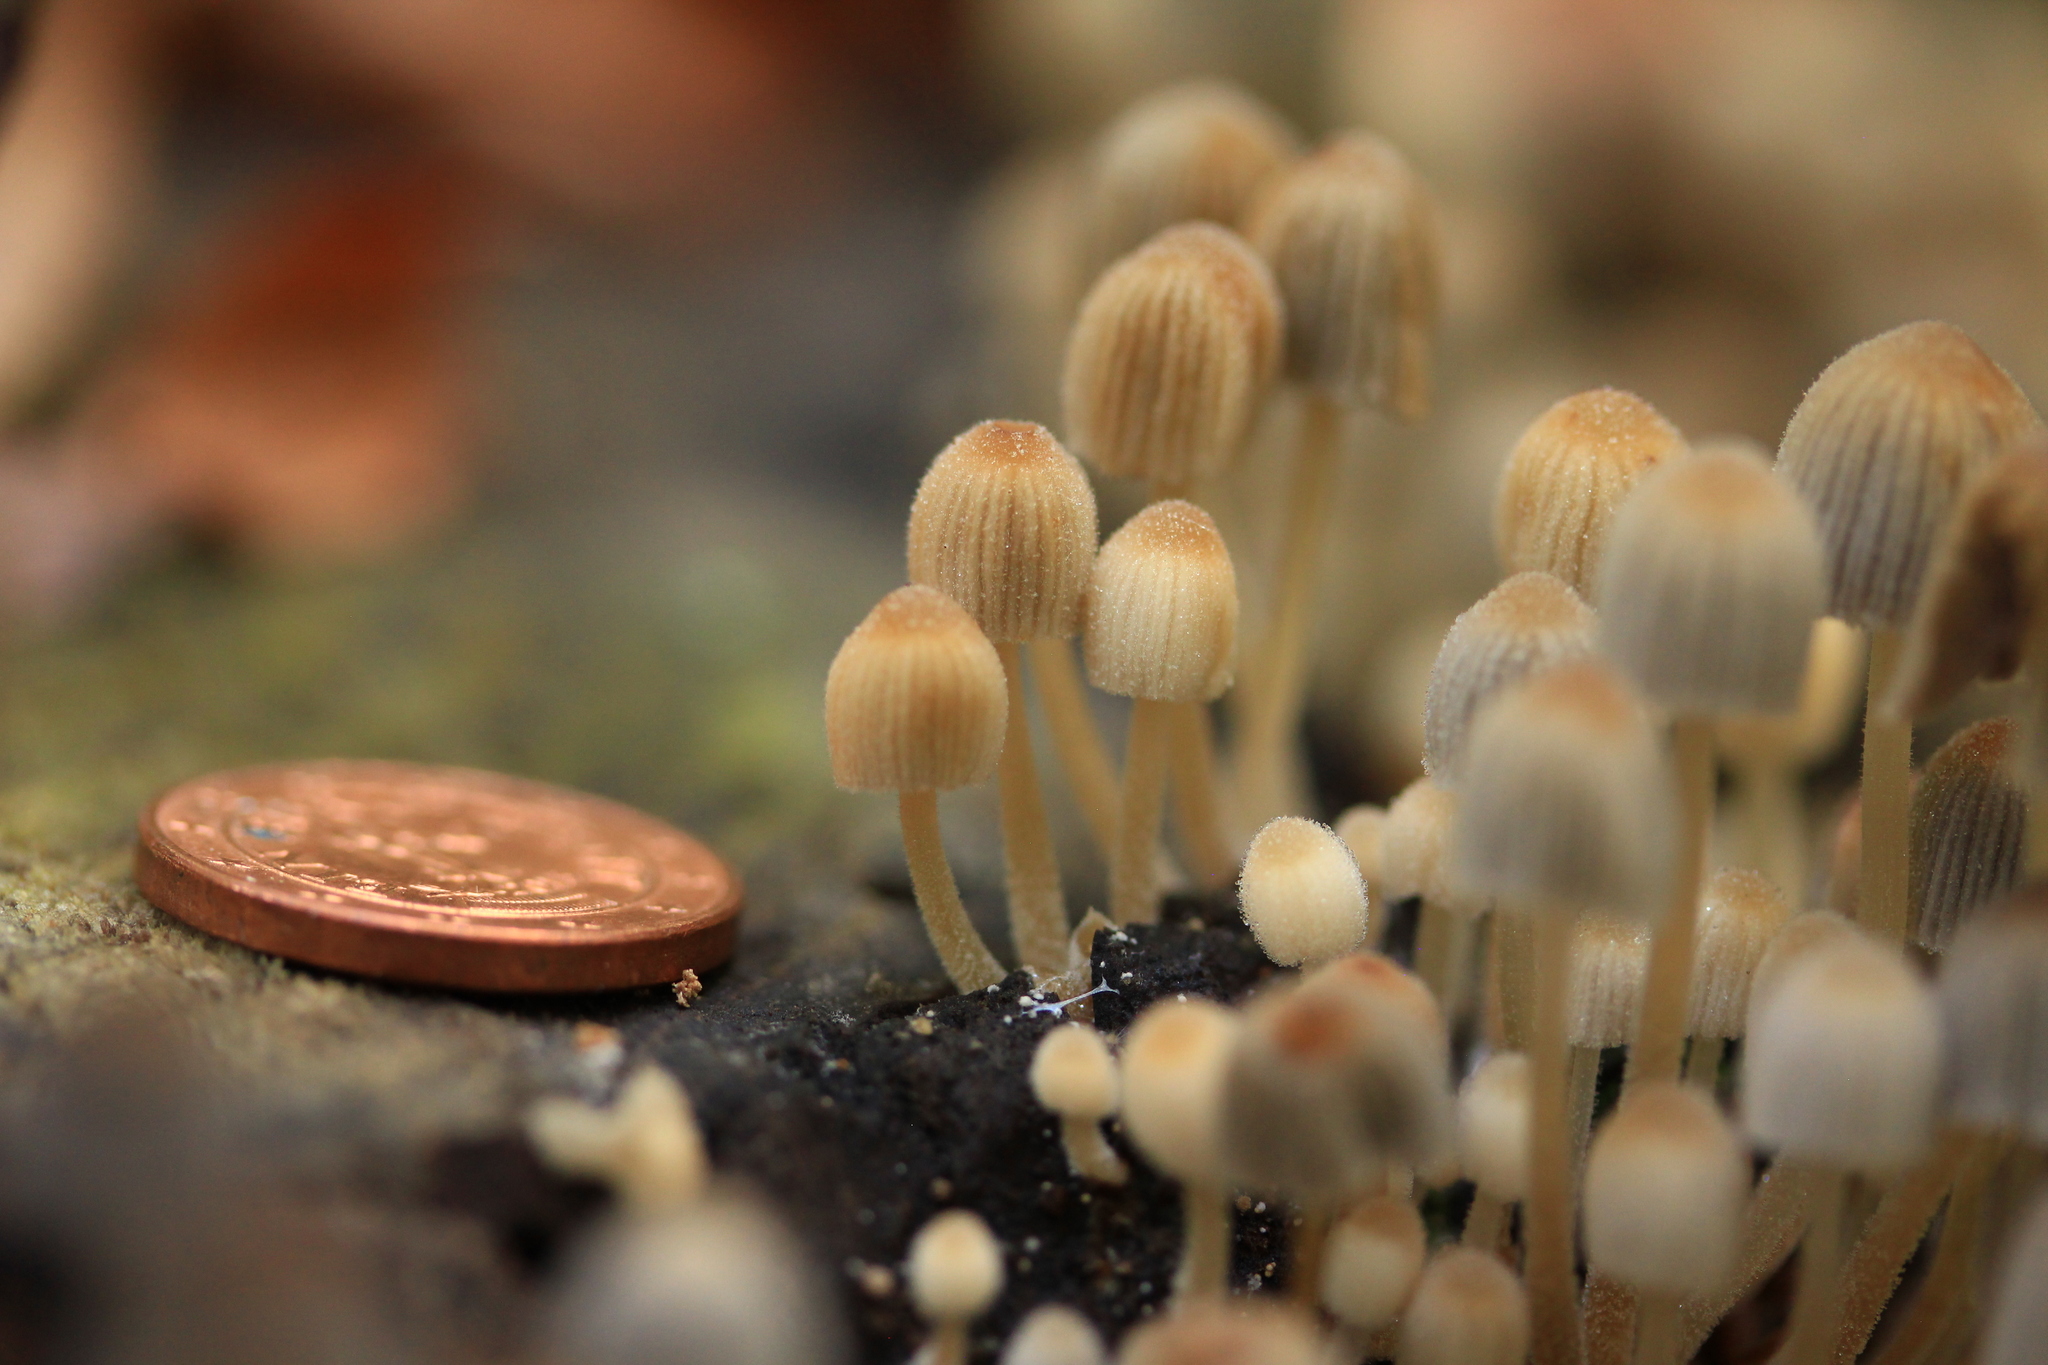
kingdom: Fungi
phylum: Basidiomycota
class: Agaricomycetes
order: Agaricales
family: Psathyrellaceae
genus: Coprinellus
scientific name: Coprinellus disseminatus
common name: Fairies' bonnets
